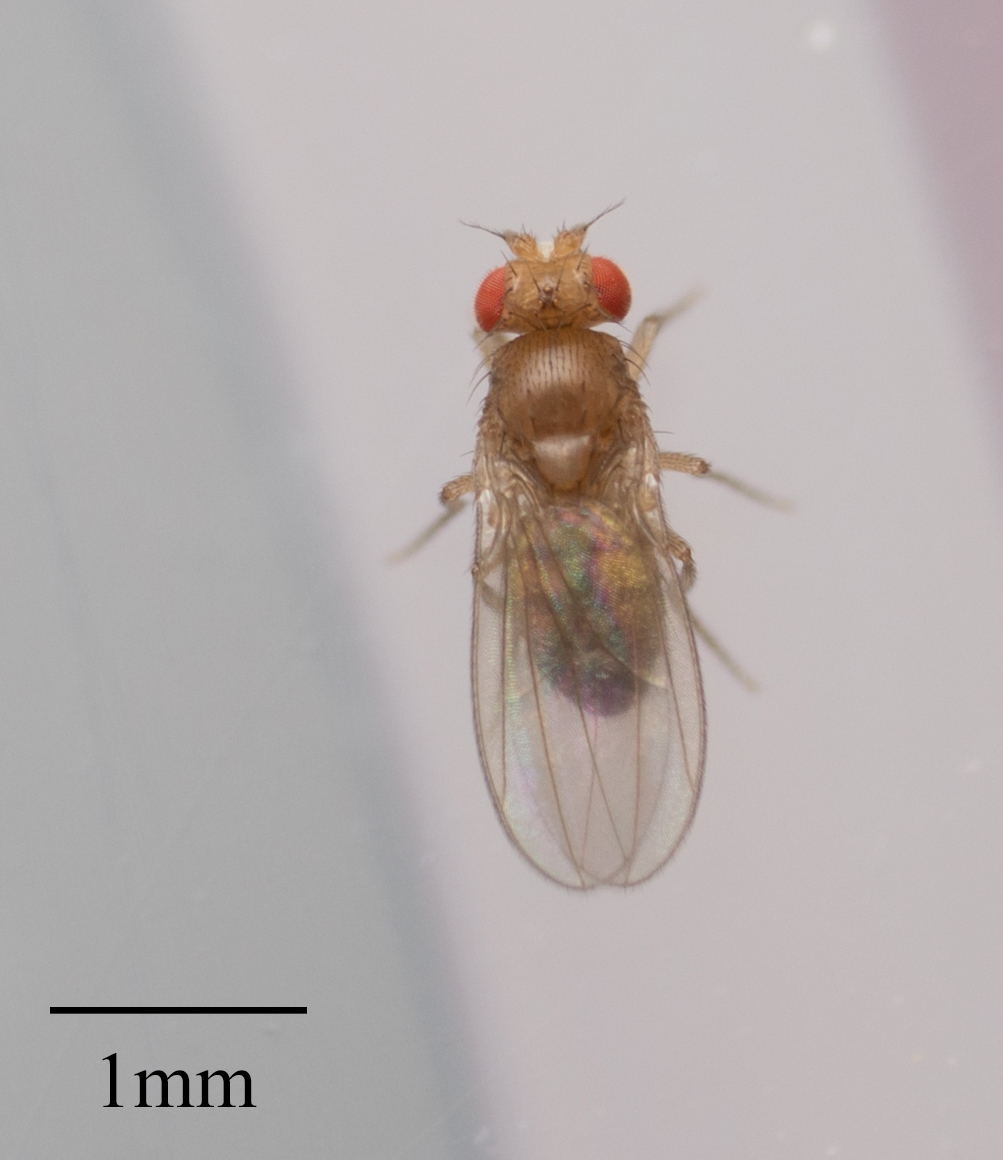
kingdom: Animalia
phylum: Arthropoda
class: Insecta
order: Diptera
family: Drosophilidae
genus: Drosophila
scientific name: Drosophila melanogaster
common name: Pomace fly
